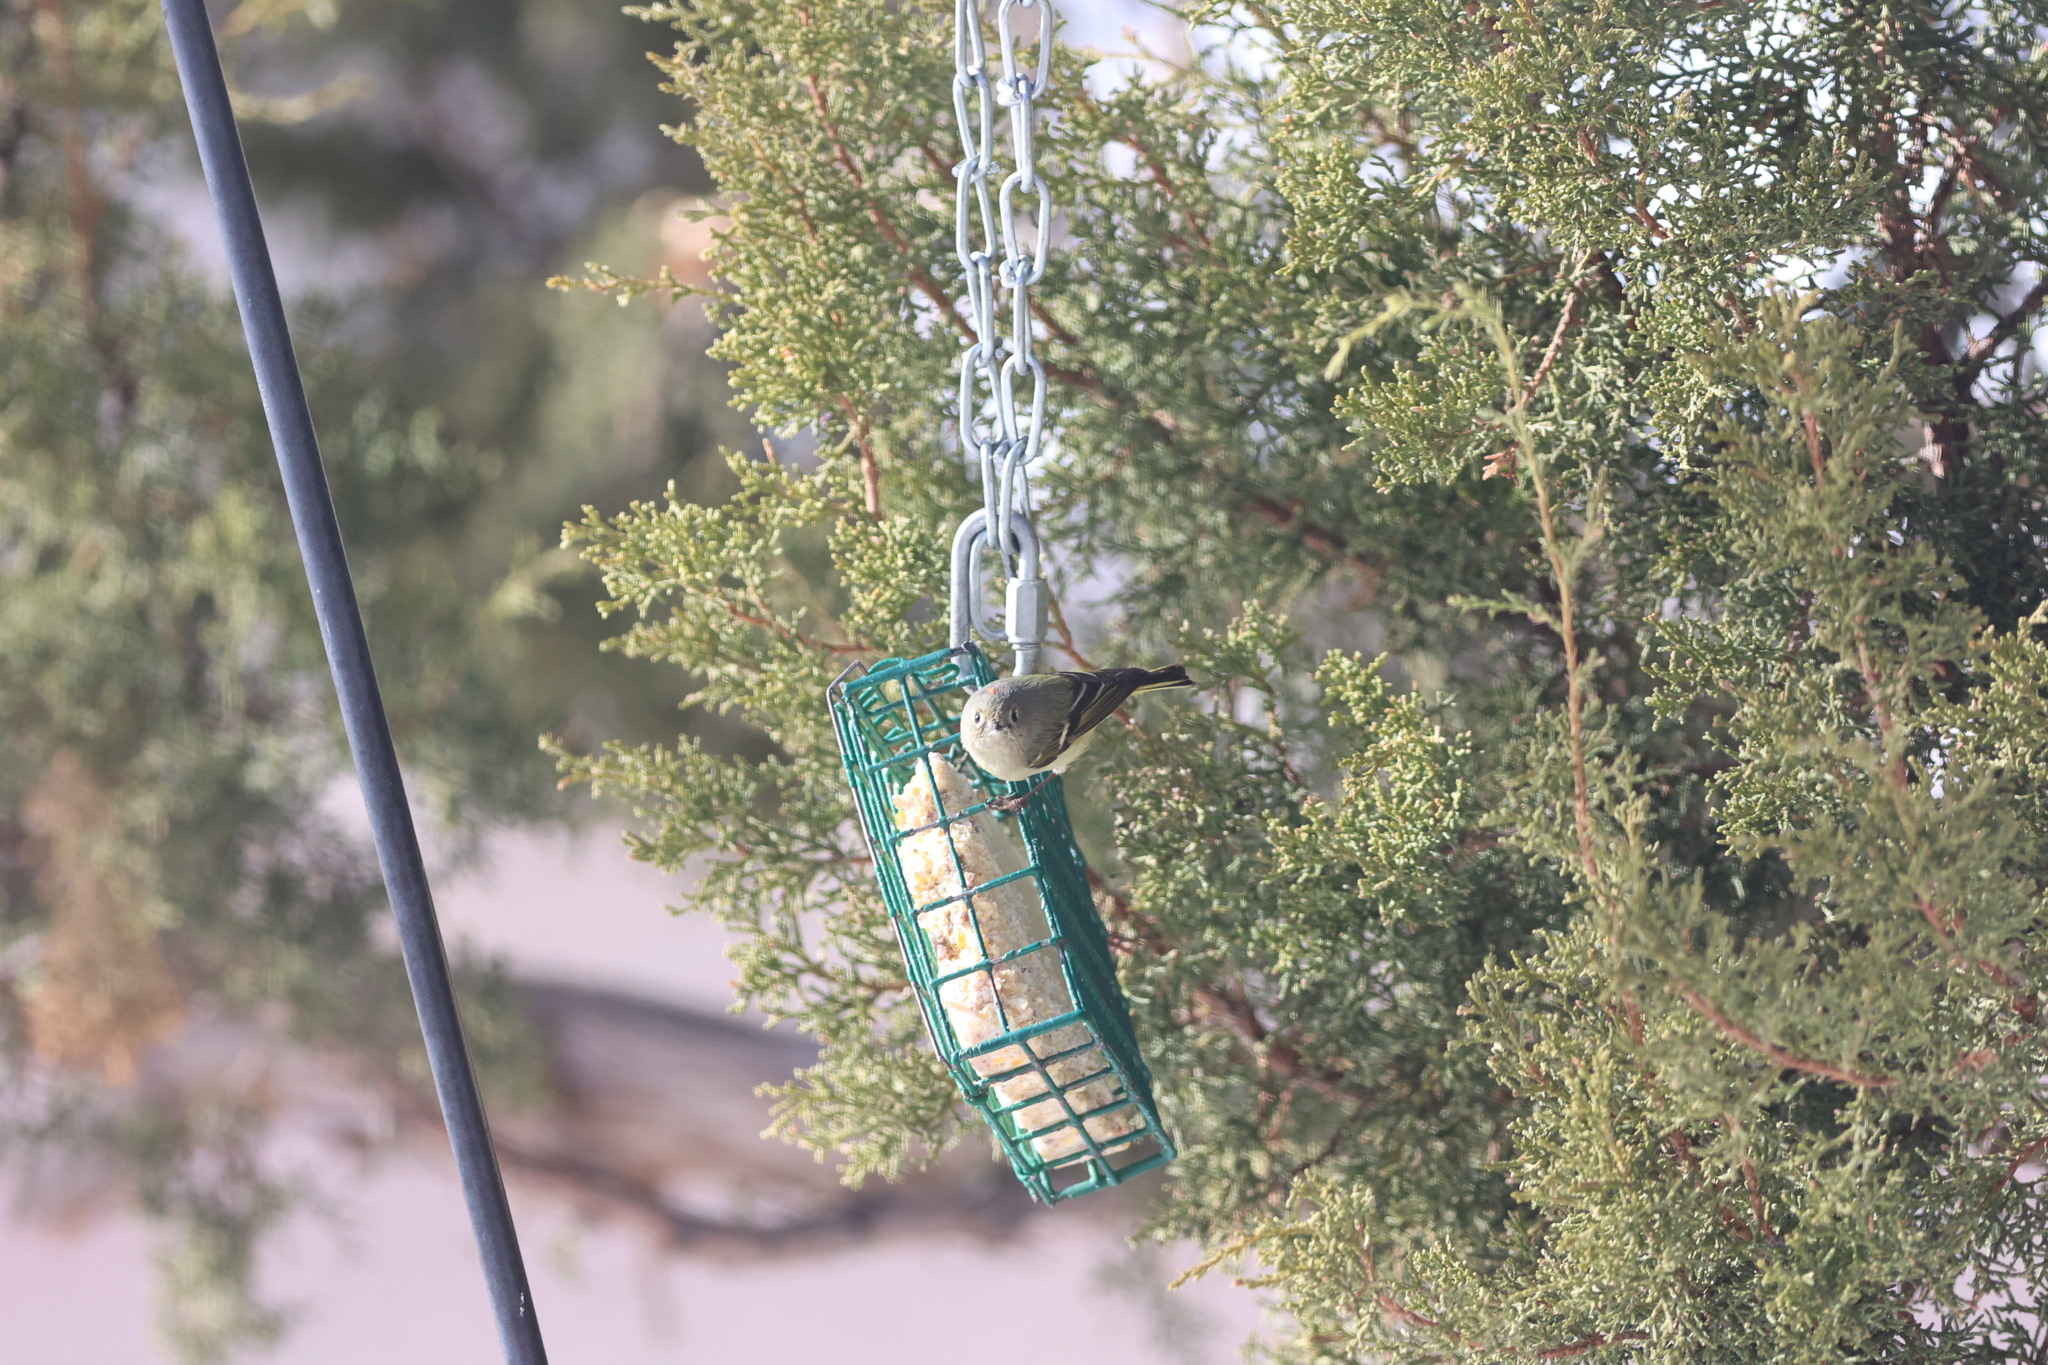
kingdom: Animalia
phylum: Chordata
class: Aves
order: Passeriformes
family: Regulidae
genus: Regulus
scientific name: Regulus calendula
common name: Ruby-crowned kinglet
